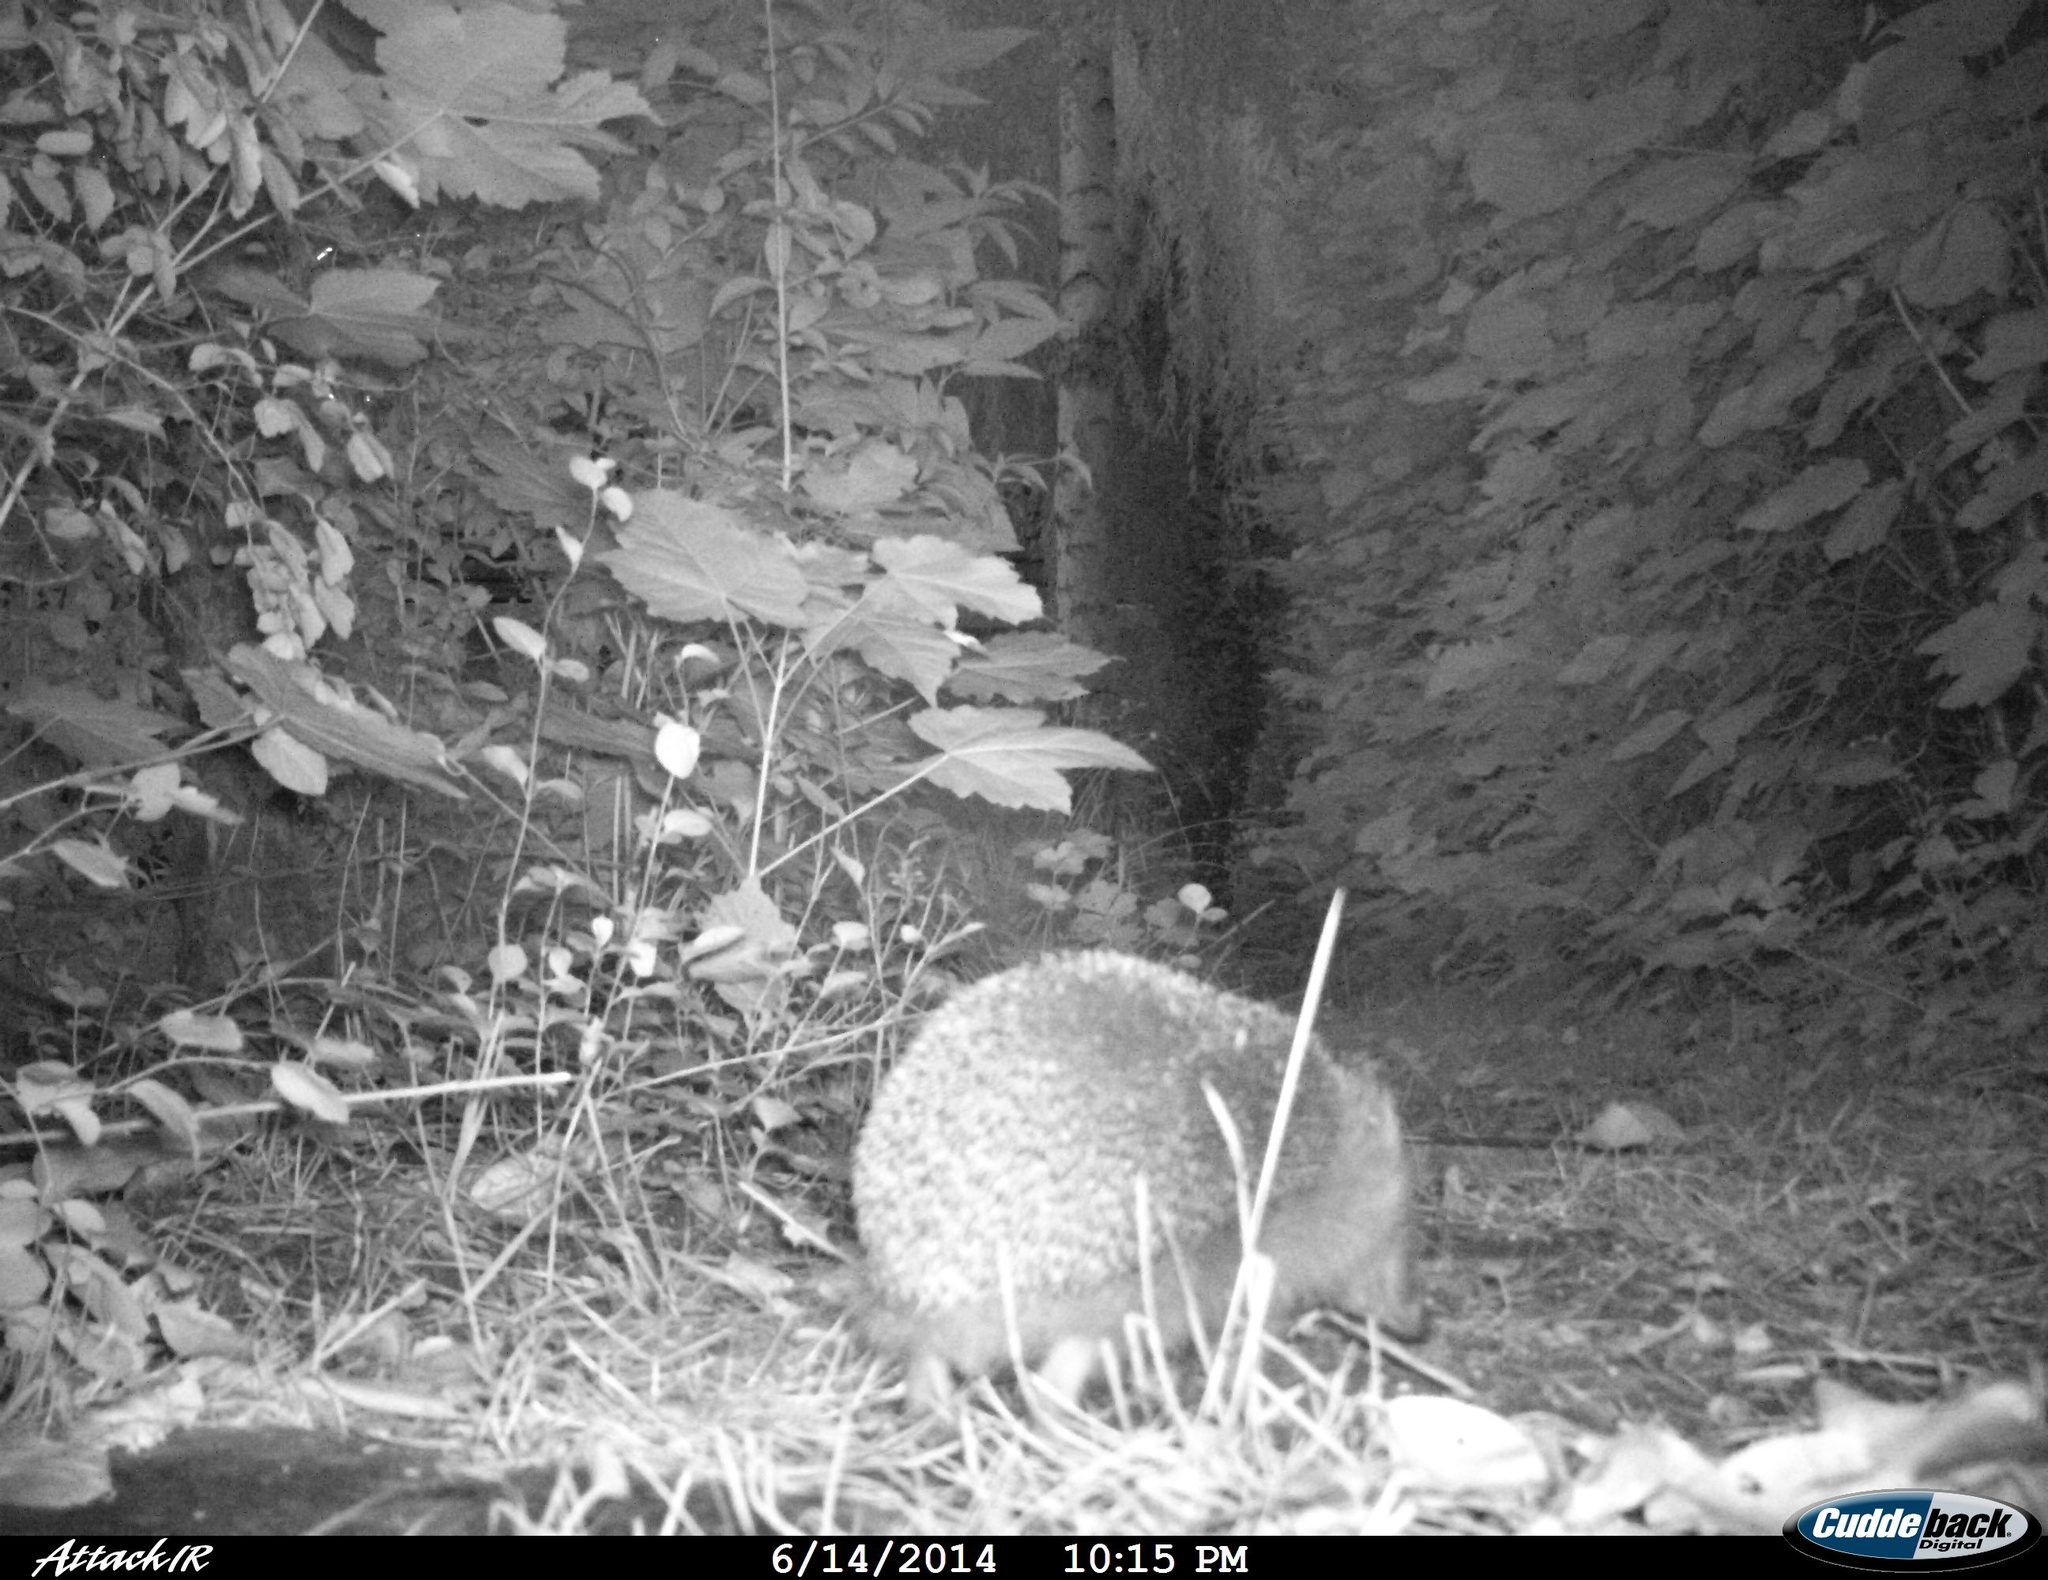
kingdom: Animalia
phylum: Chordata
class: Mammalia
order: Erinaceomorpha
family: Erinaceidae
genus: Erinaceus
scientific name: Erinaceus europaeus
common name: West european hedgehog
